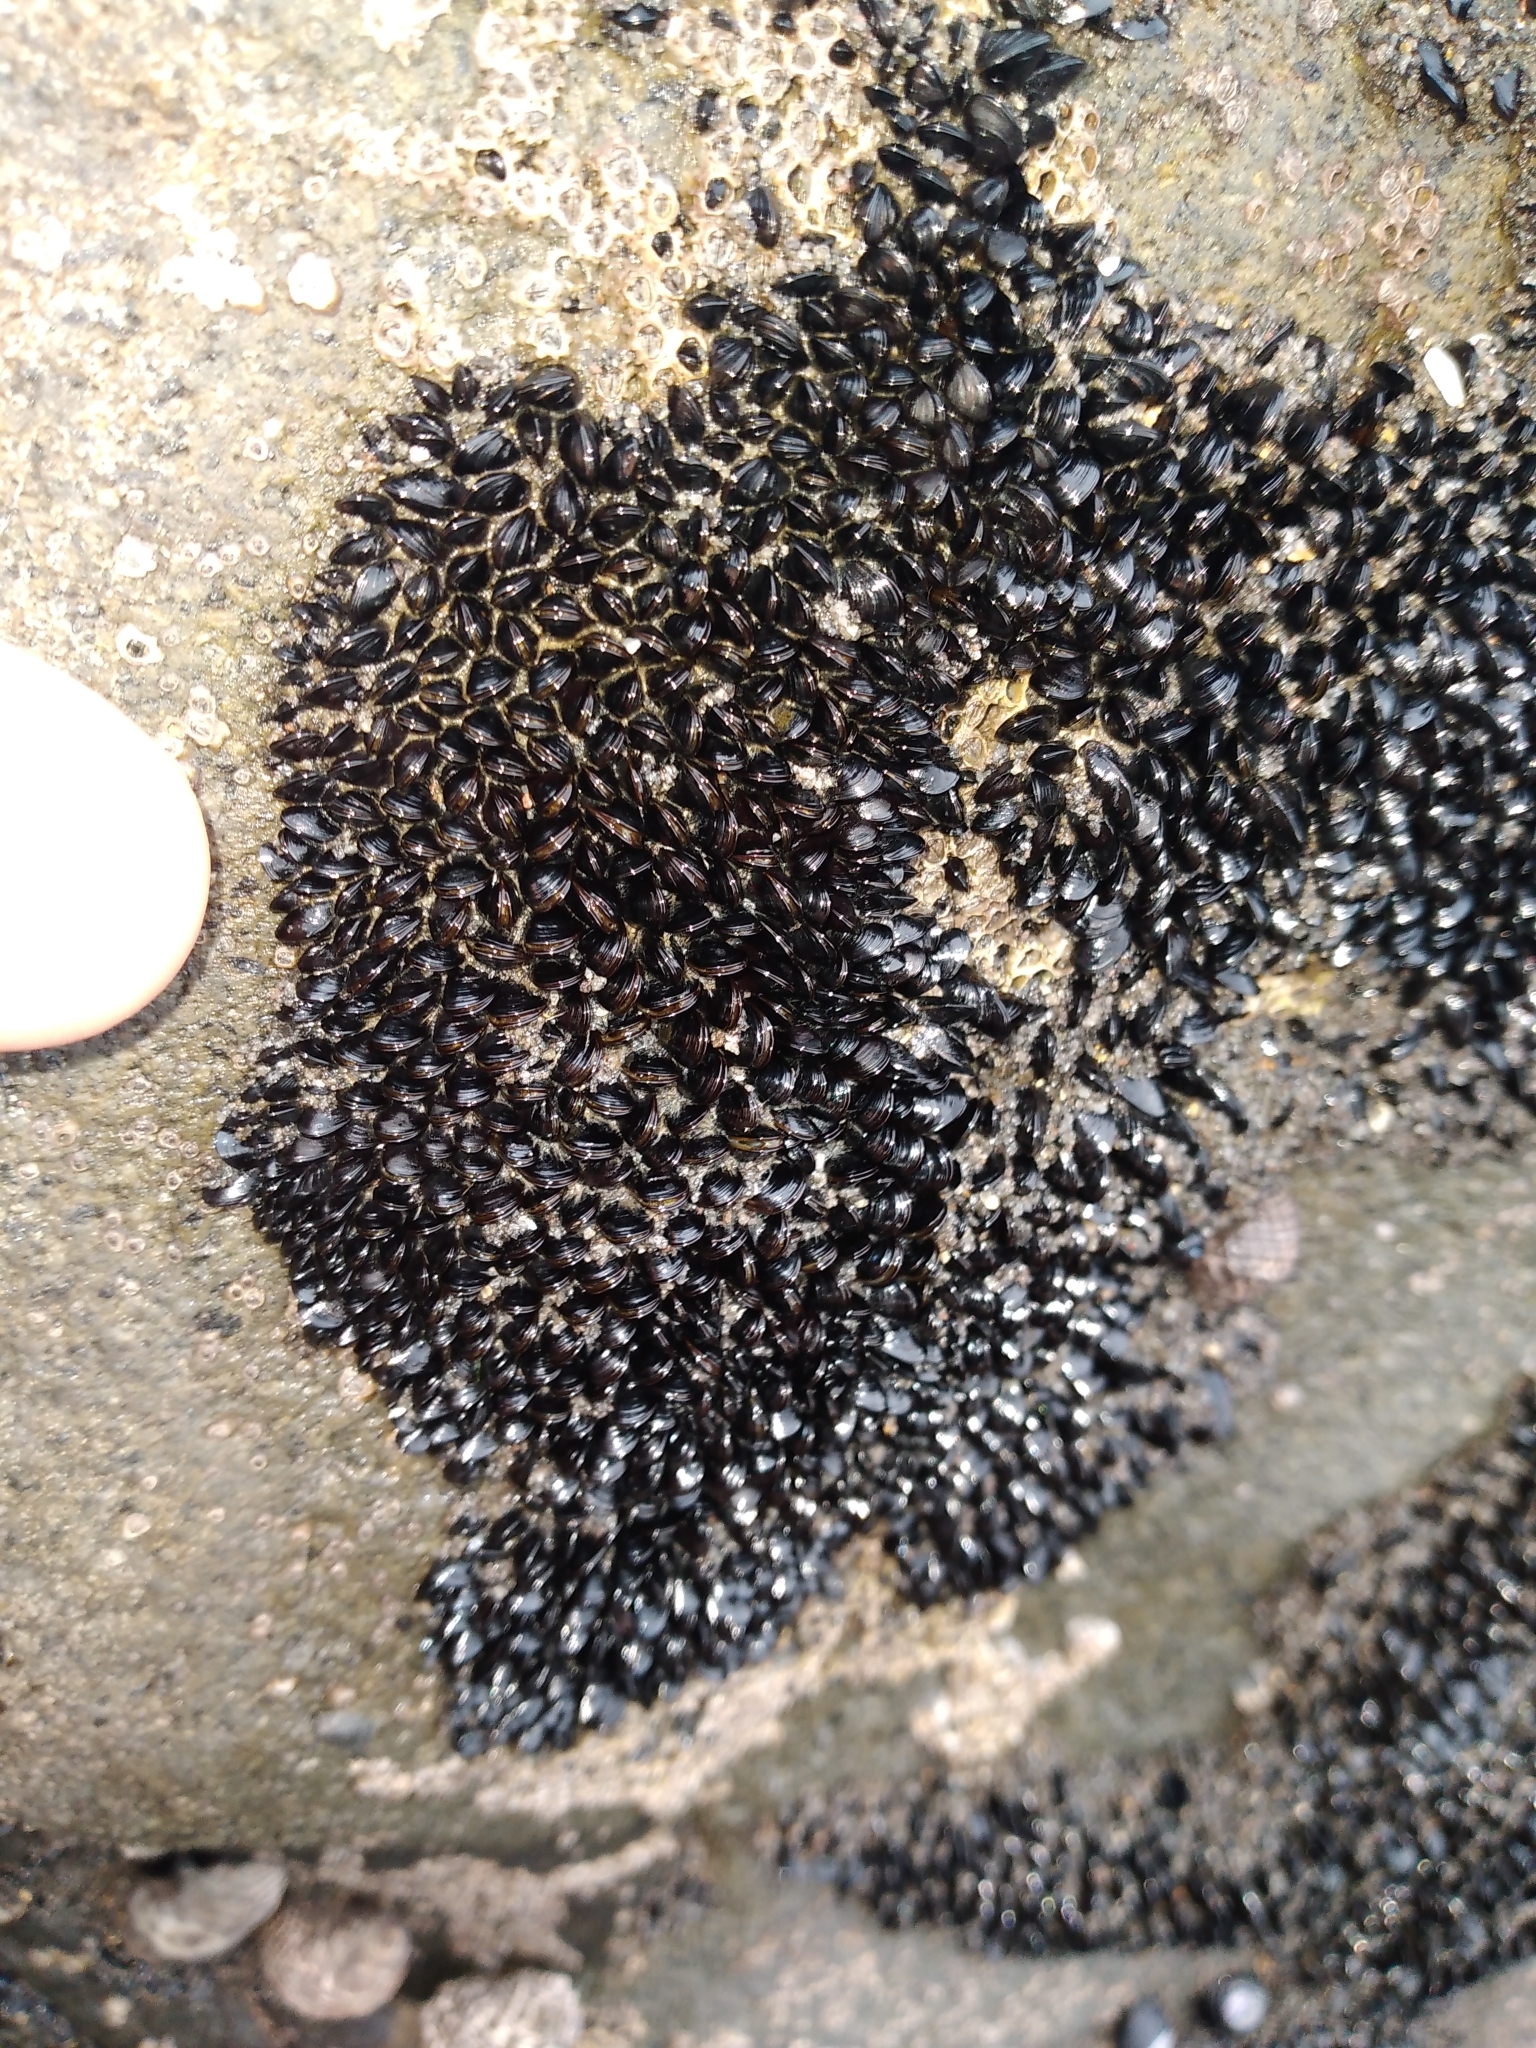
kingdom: Animalia
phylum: Mollusca
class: Bivalvia
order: Mytilida
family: Mytilidae
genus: Xenostrobus
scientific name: Xenostrobus neozelanicus
